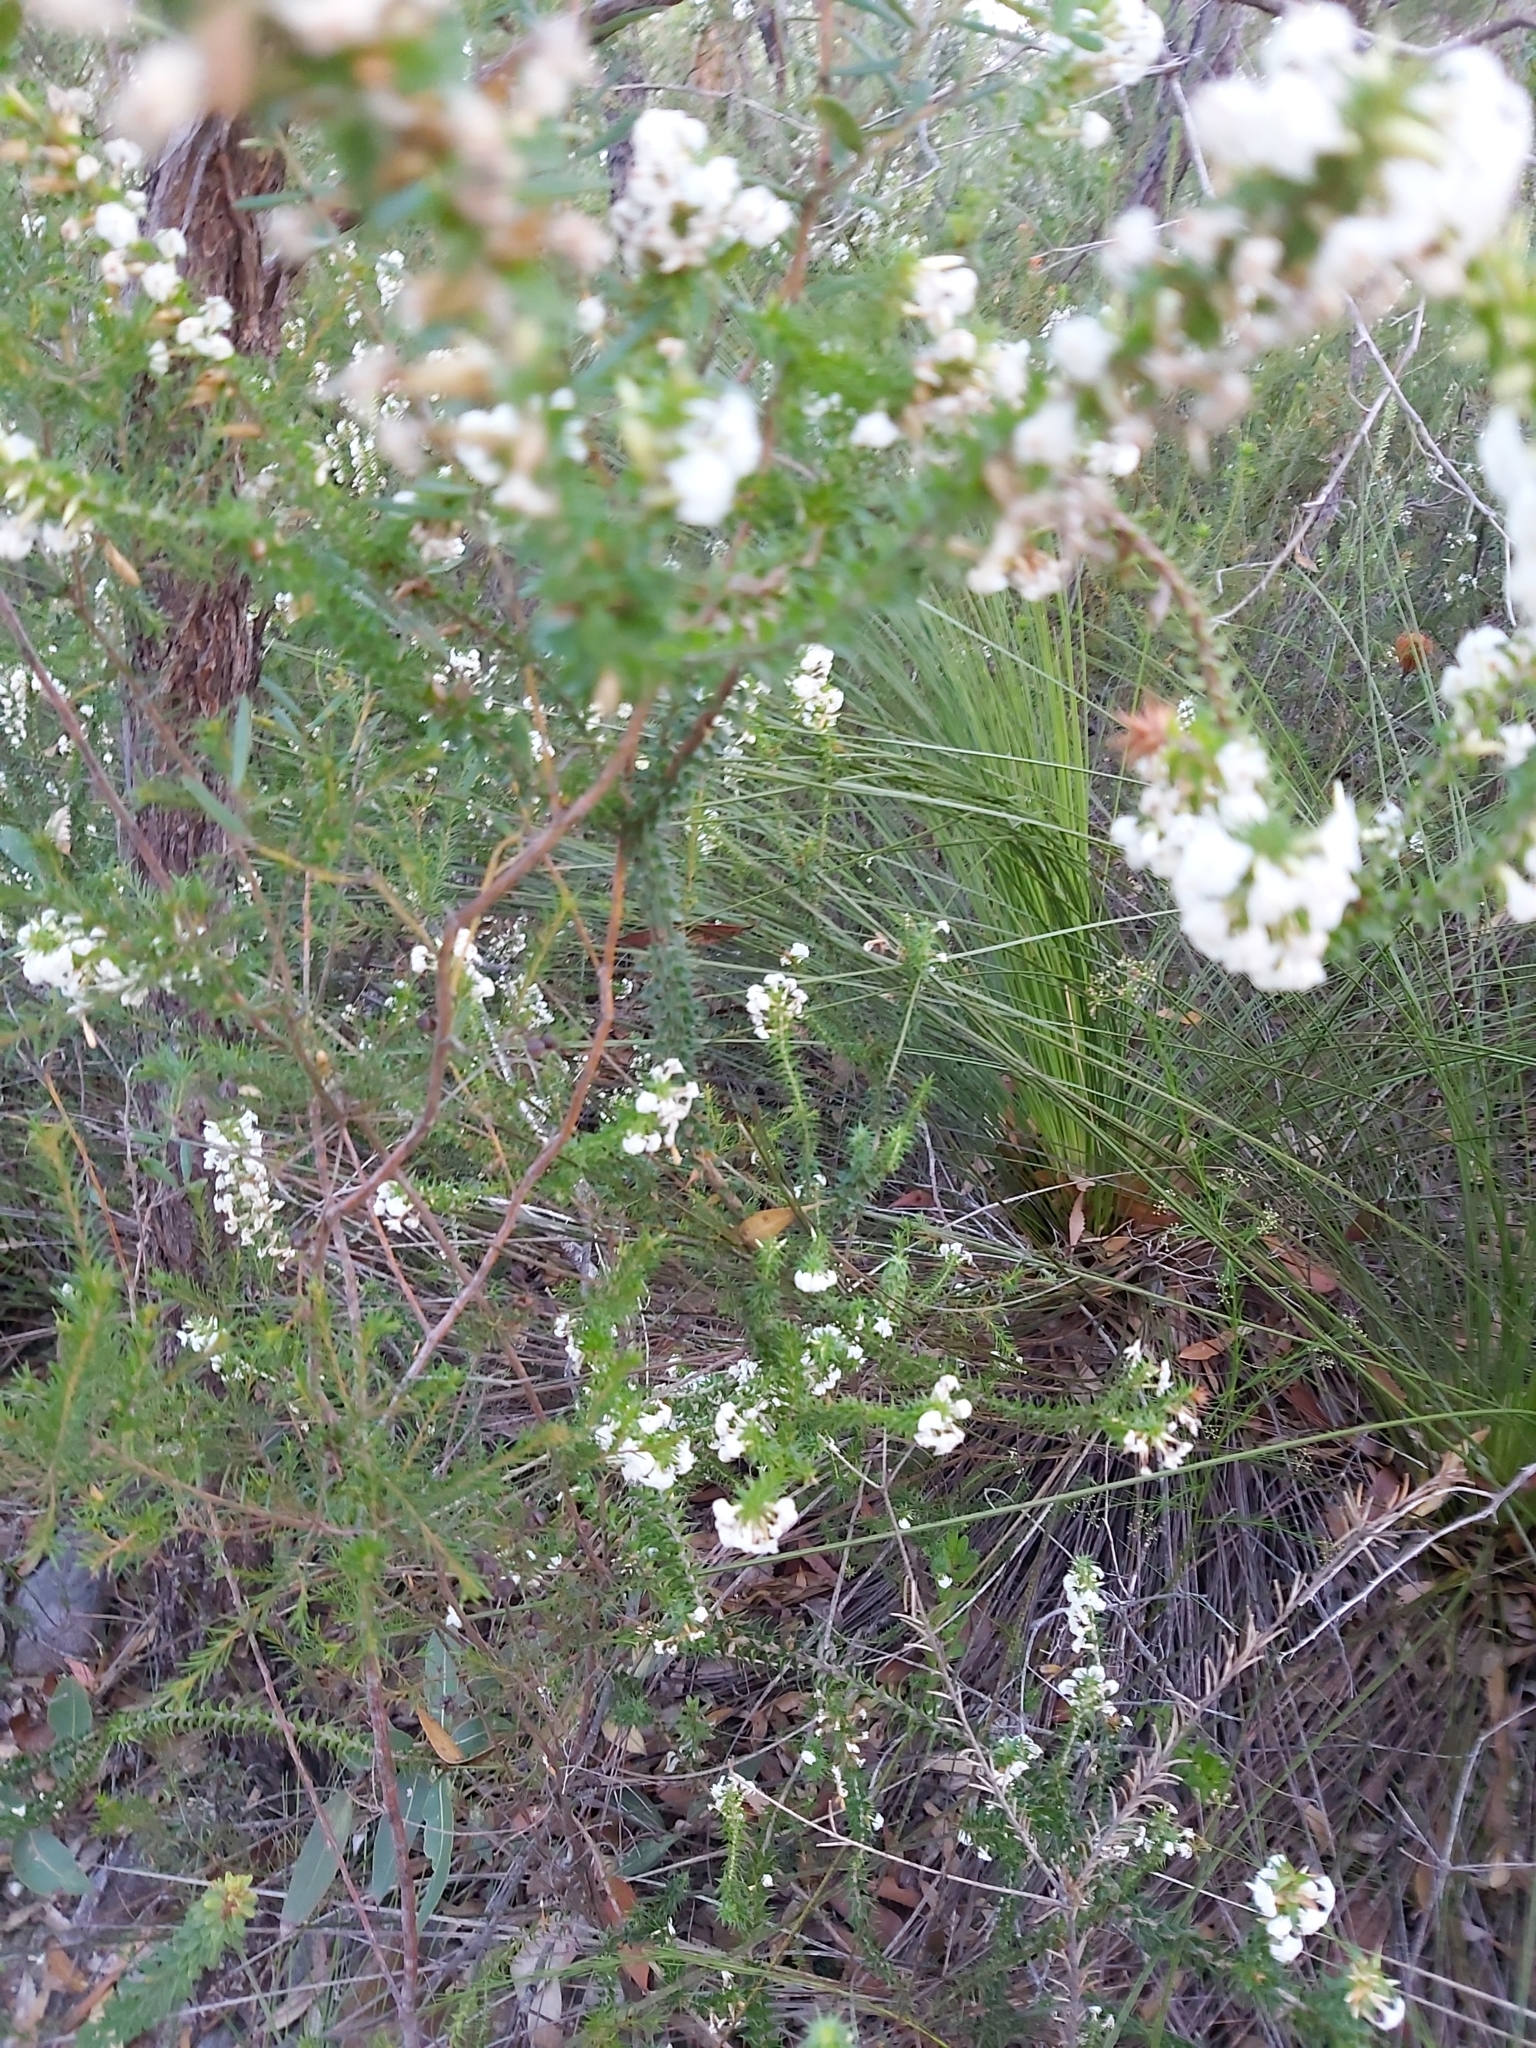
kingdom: Plantae
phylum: Tracheophyta
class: Magnoliopsida
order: Ericales
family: Ericaceae
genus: Woollsia
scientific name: Woollsia pungens
